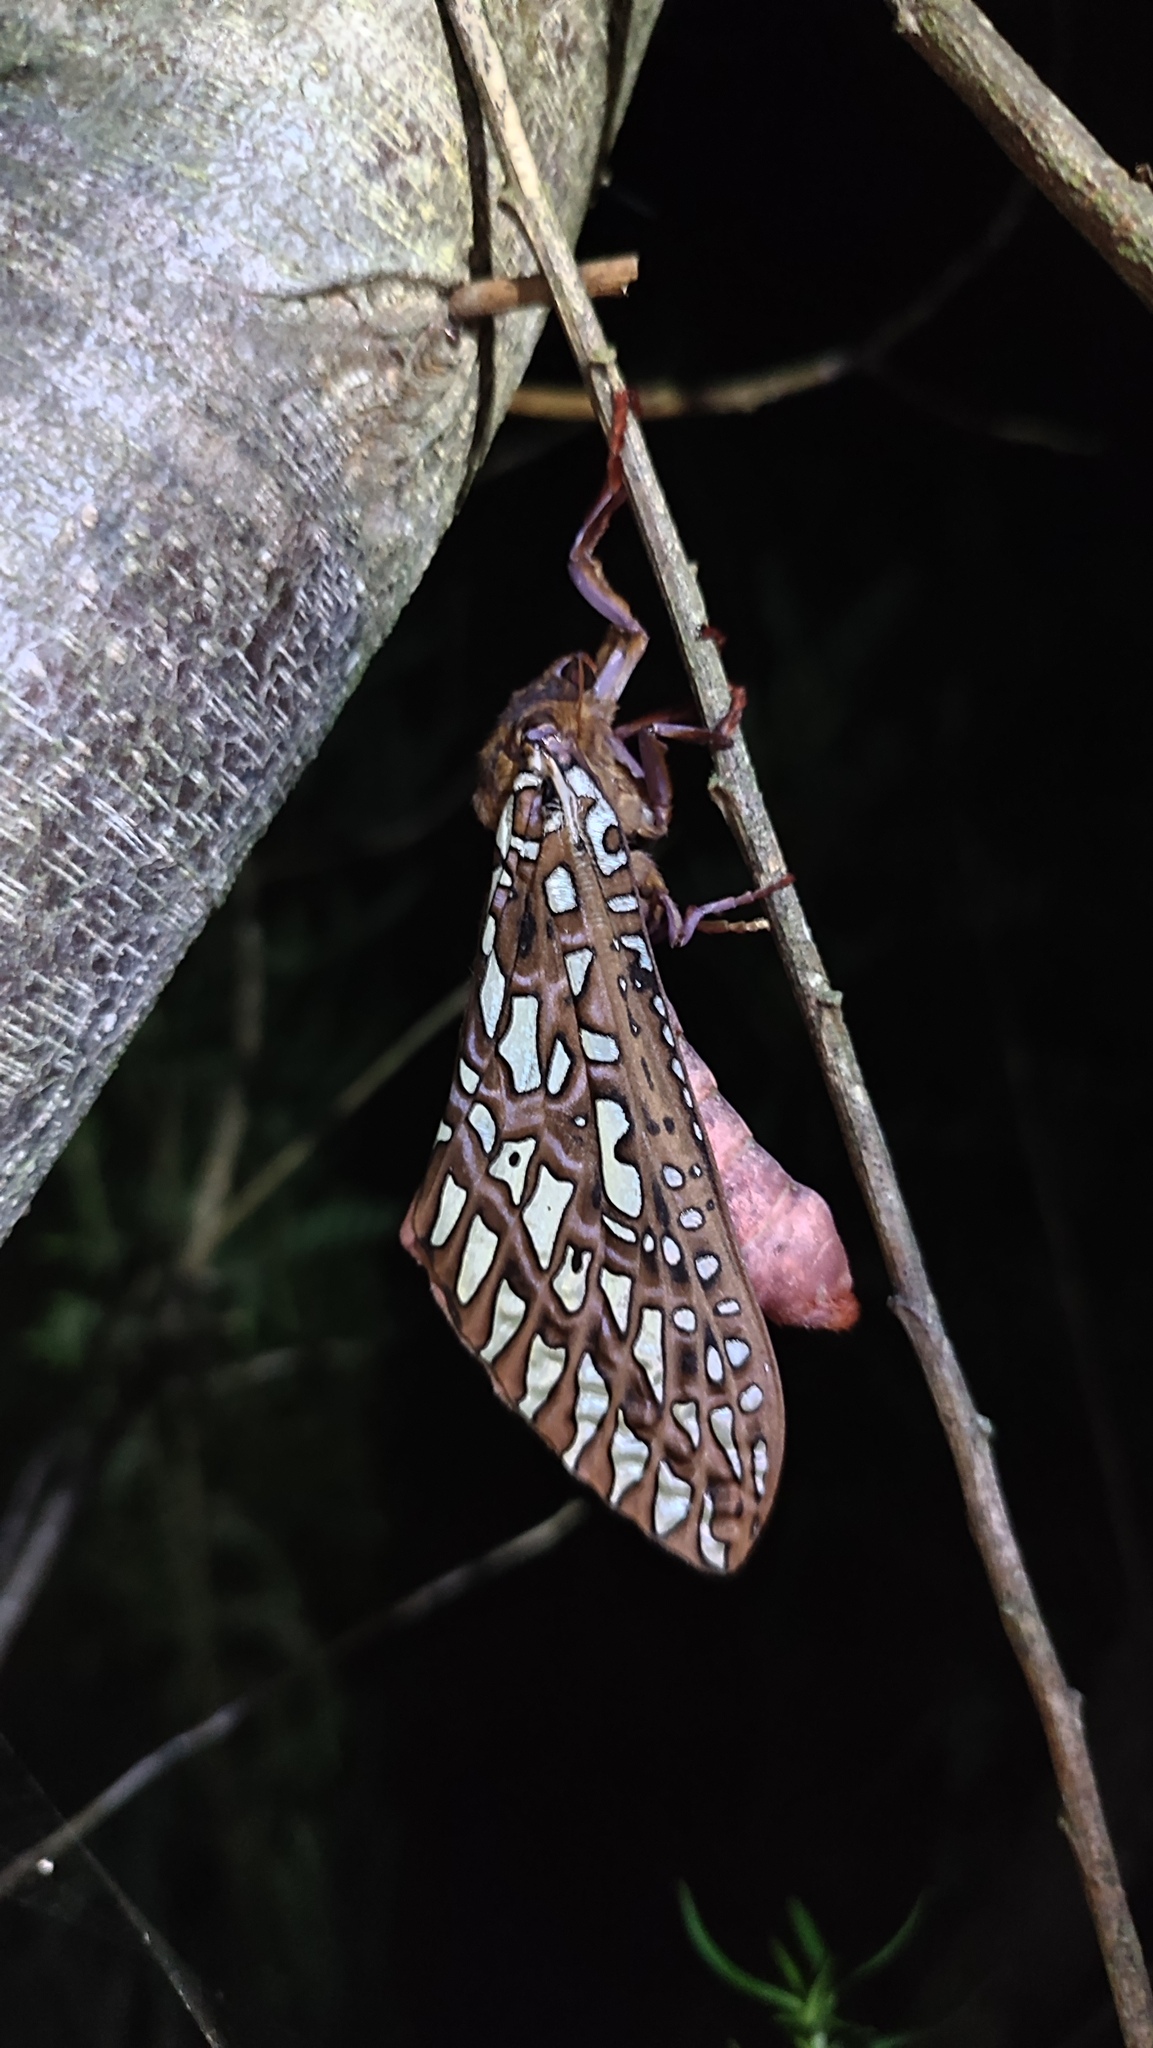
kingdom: Animalia
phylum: Arthropoda
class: Insecta
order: Lepidoptera
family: Hepialidae
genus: Leto
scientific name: Leto venus
